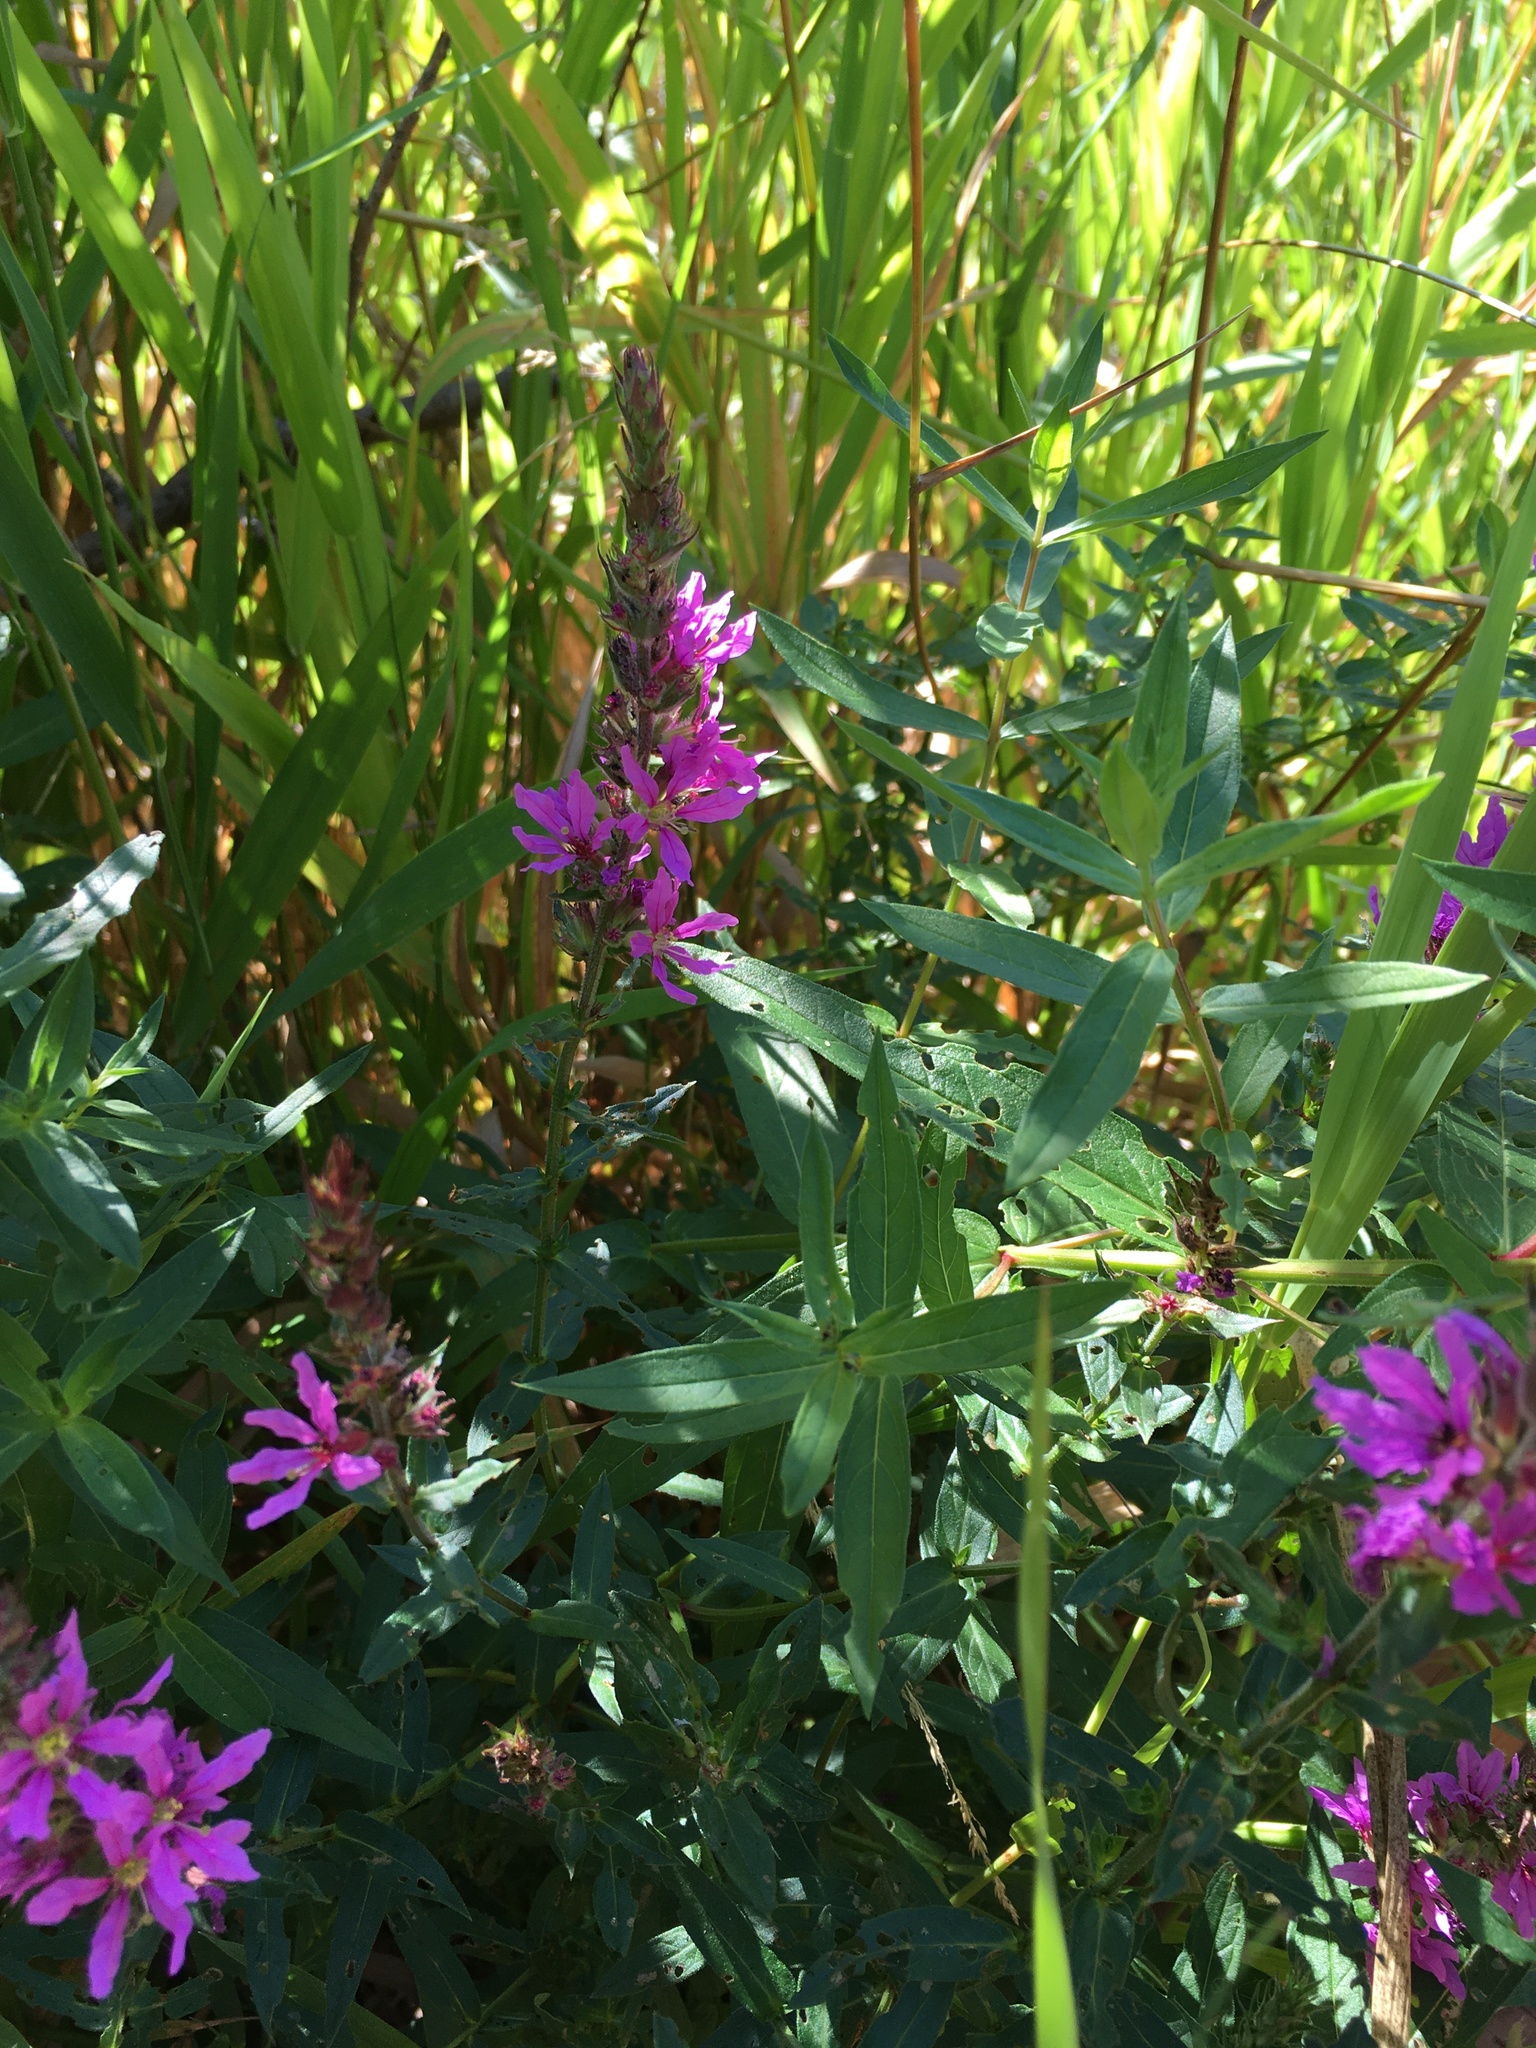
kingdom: Plantae
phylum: Tracheophyta
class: Magnoliopsida
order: Myrtales
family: Lythraceae
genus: Lythrum
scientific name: Lythrum salicaria
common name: Purple loosestrife
